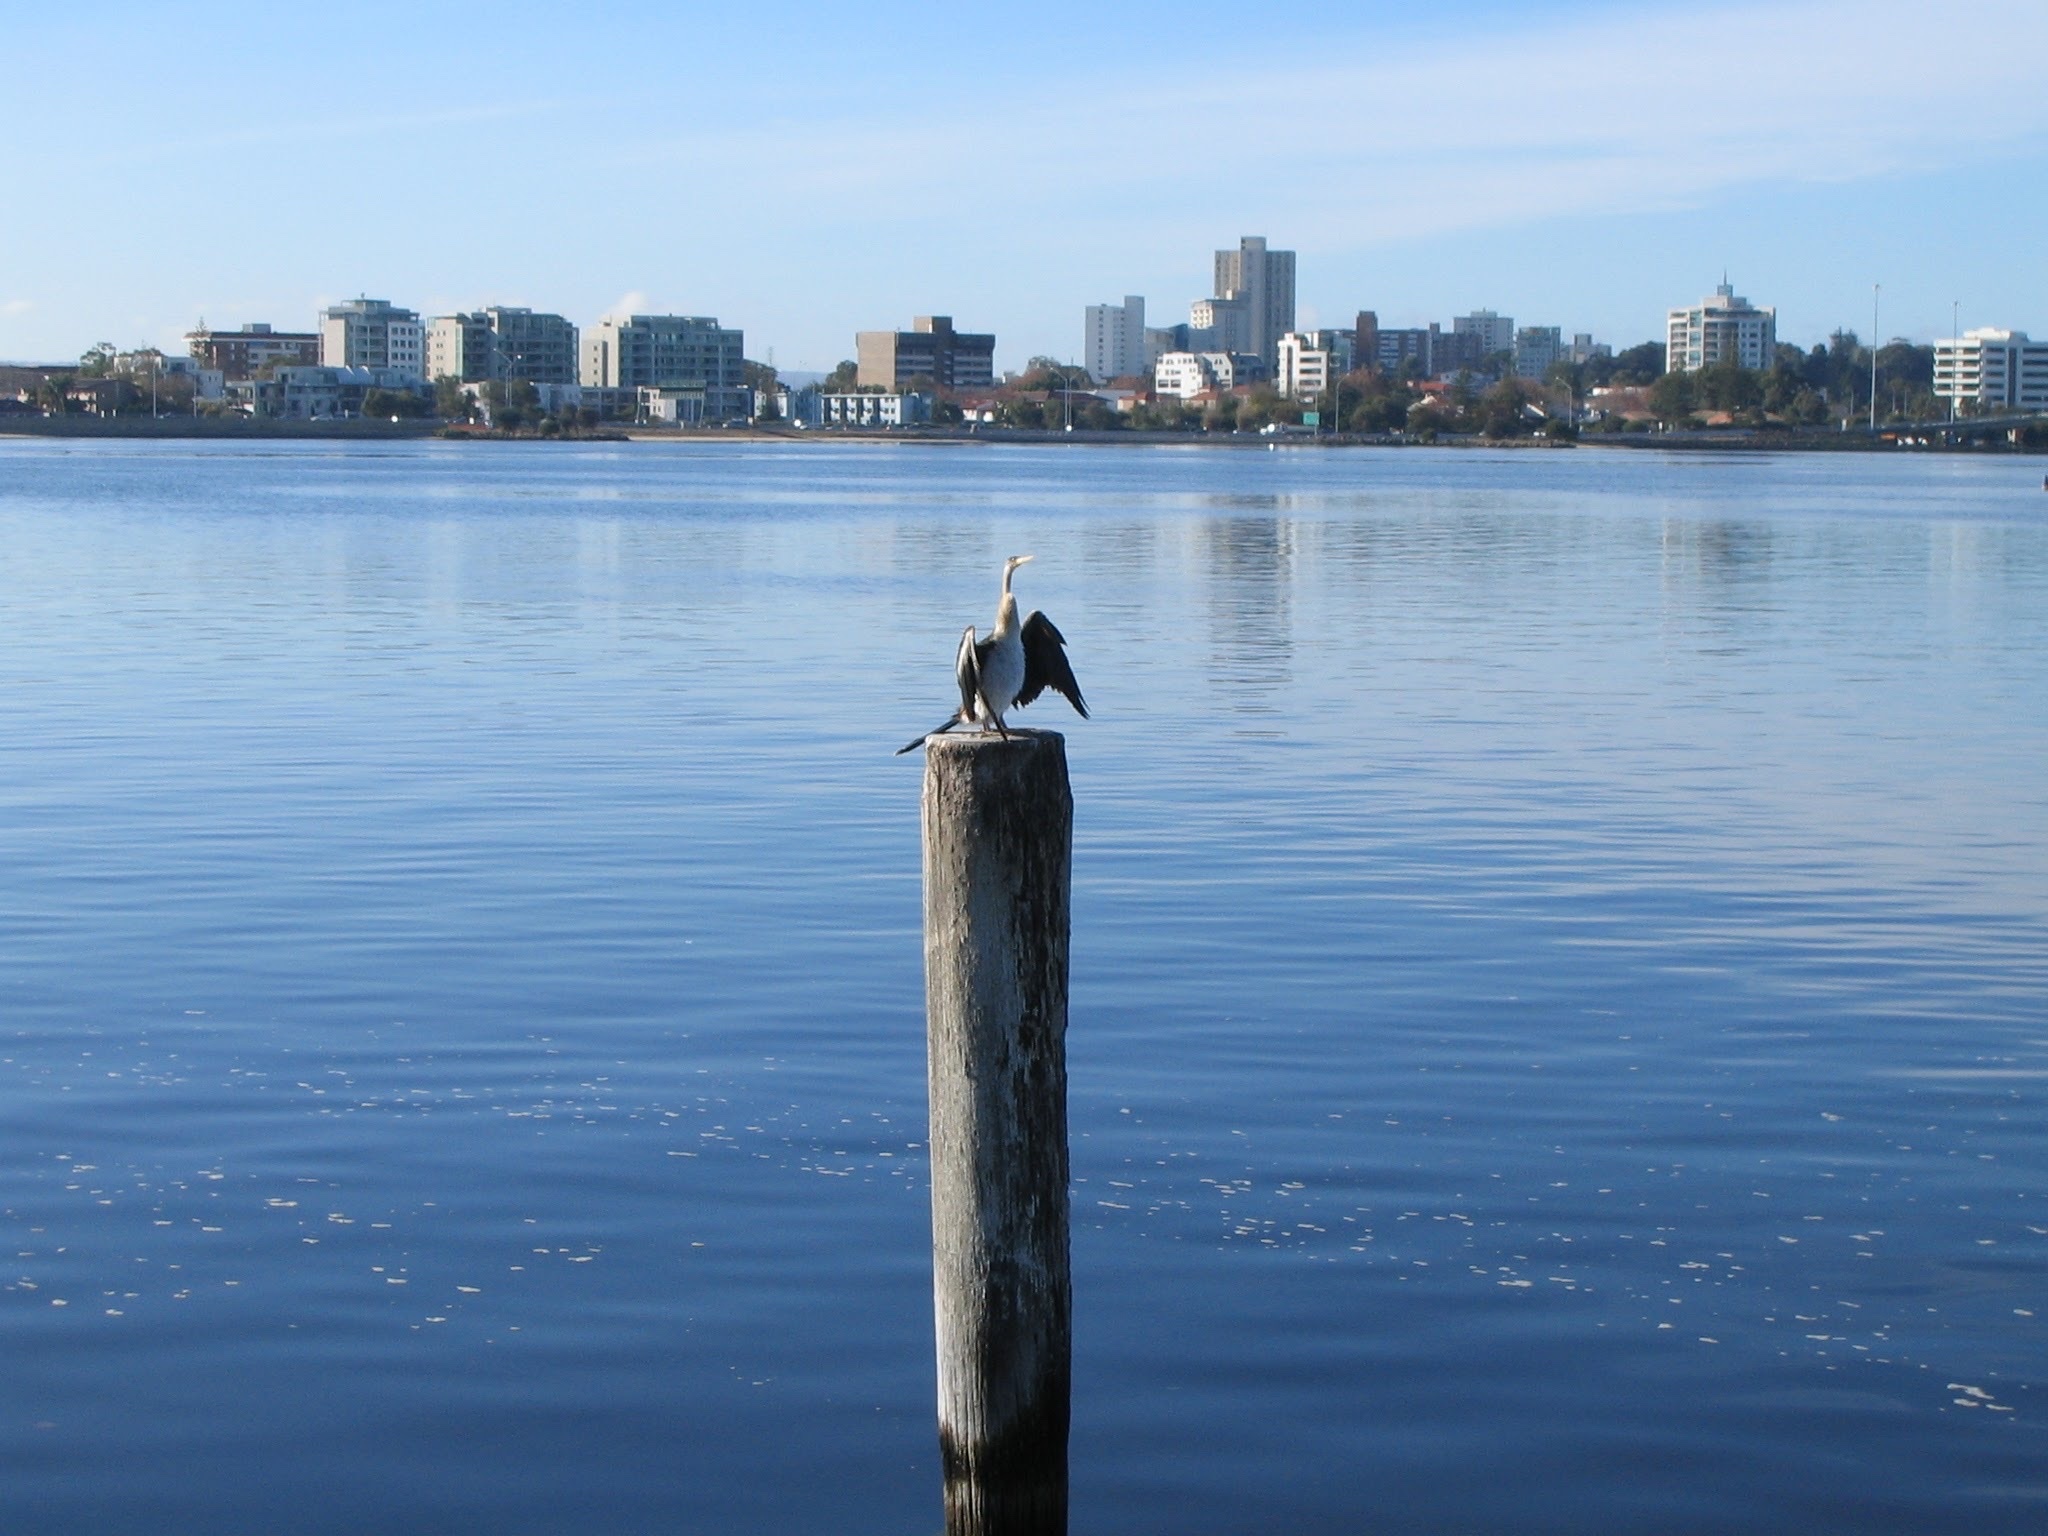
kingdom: Animalia
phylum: Chordata
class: Aves
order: Suliformes
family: Anhingidae
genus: Anhinga
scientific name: Anhinga novaehollandiae
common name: Australasian darter
